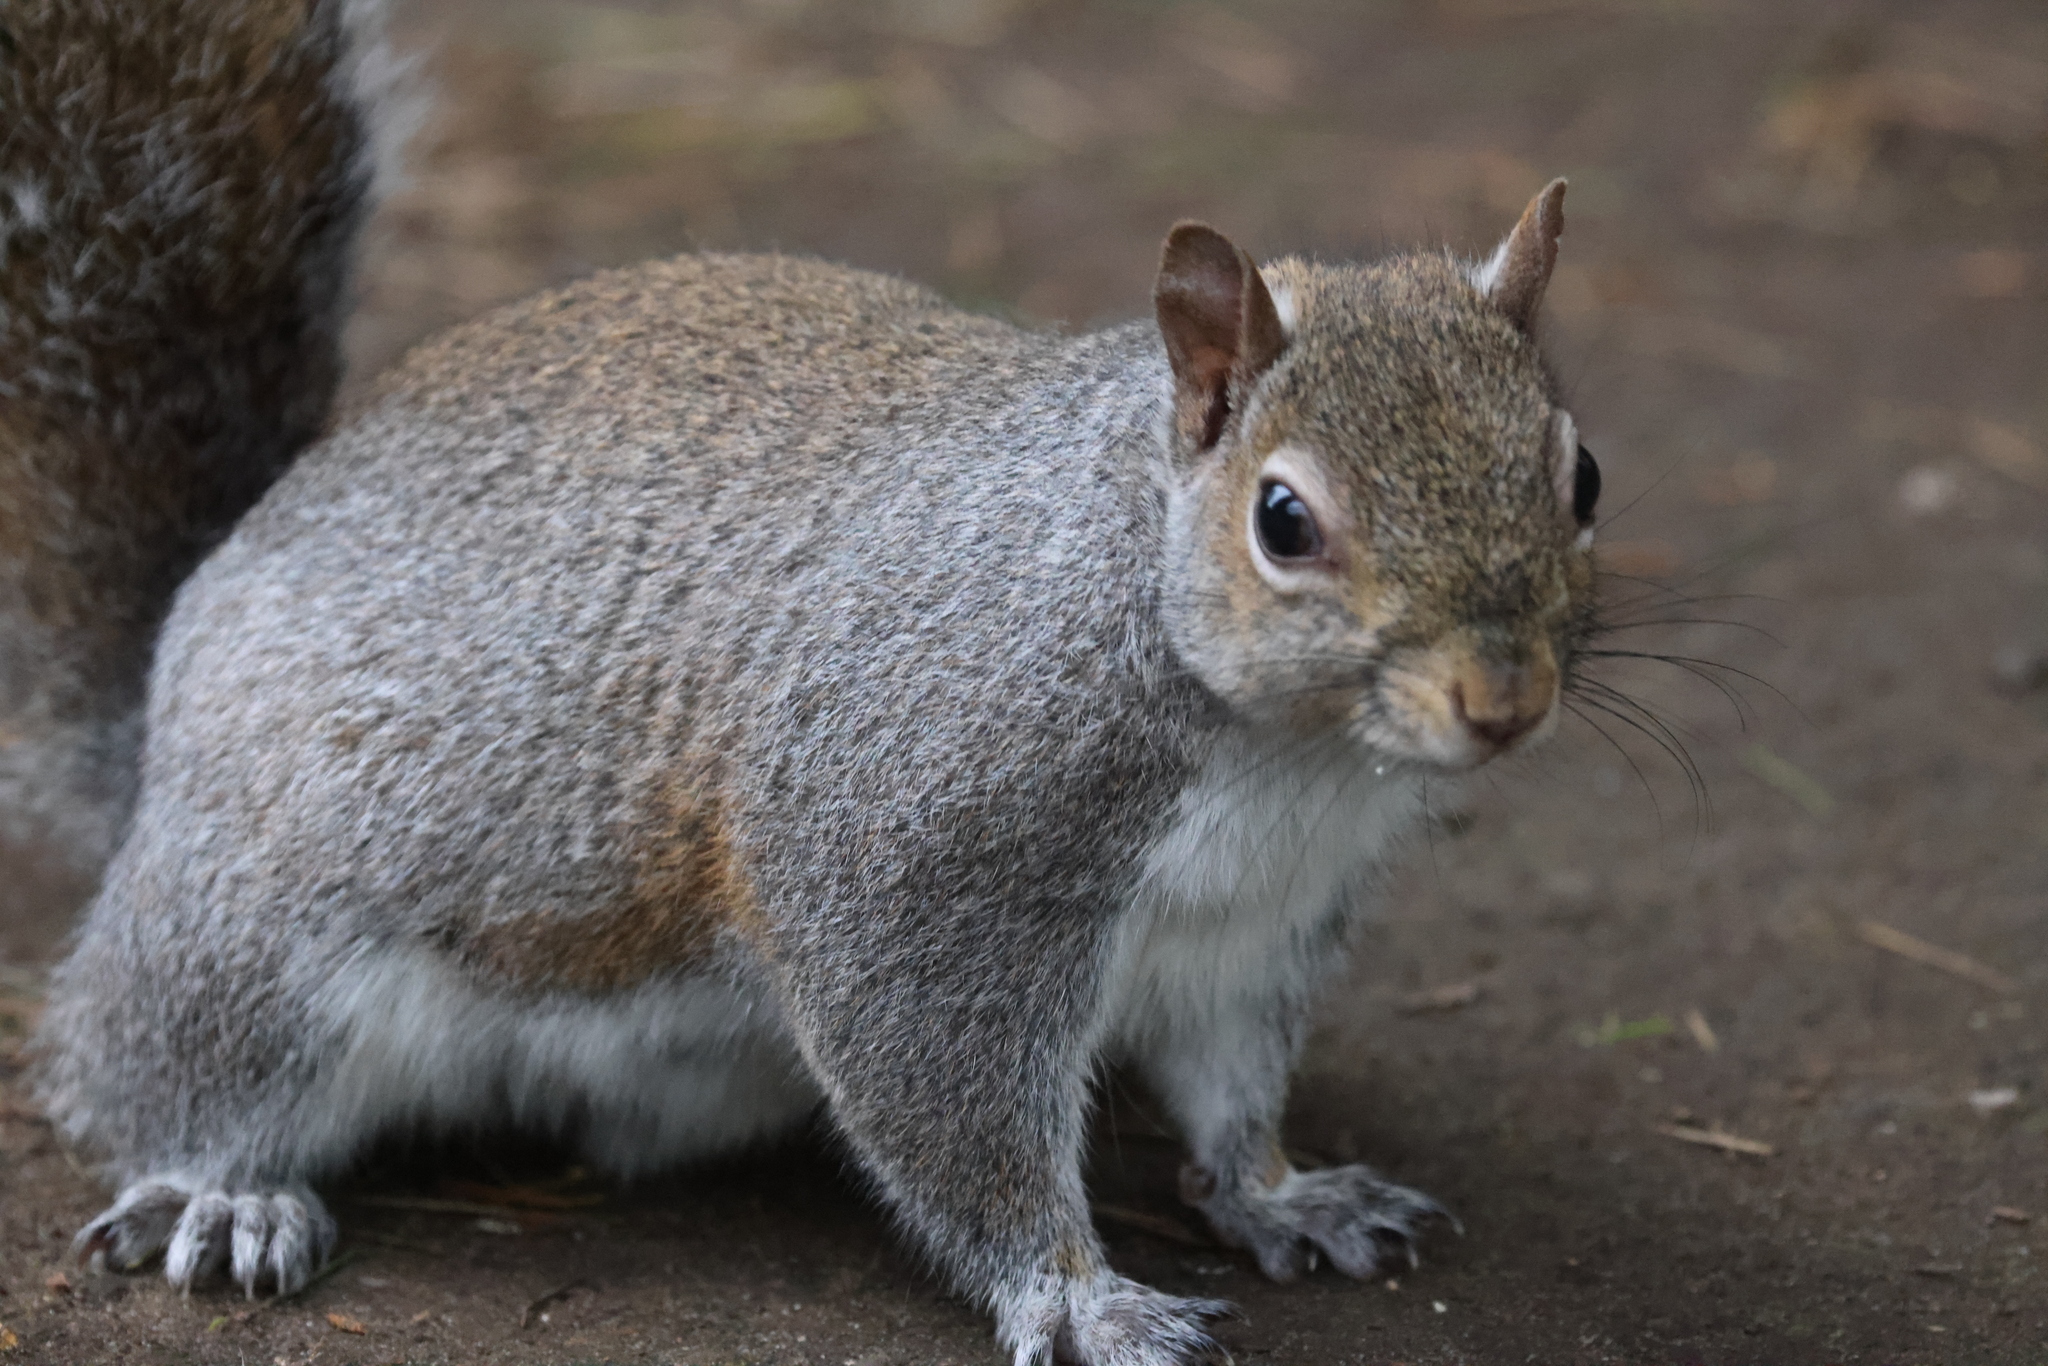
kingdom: Animalia
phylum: Chordata
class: Mammalia
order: Rodentia
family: Sciuridae
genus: Sciurus
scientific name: Sciurus carolinensis
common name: Eastern gray squirrel
